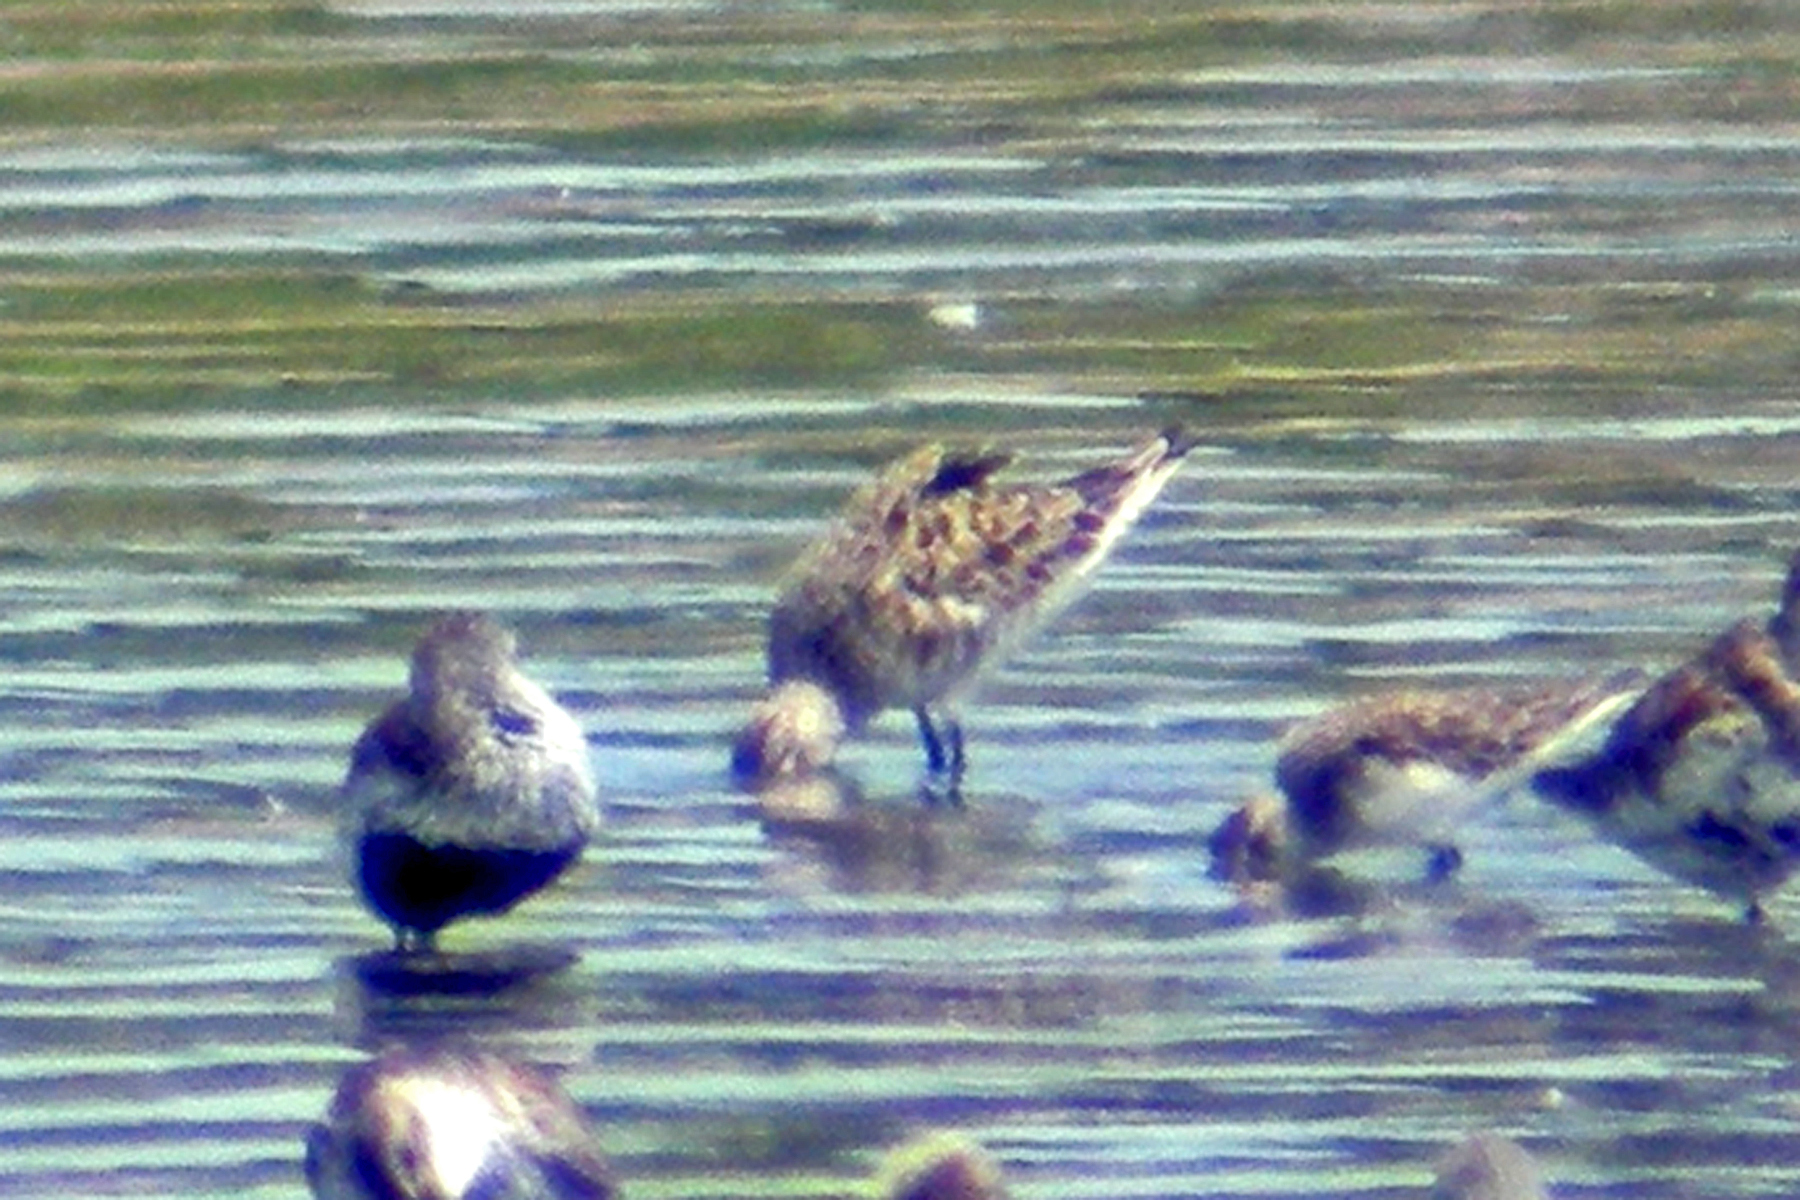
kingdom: Animalia
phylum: Chordata
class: Aves
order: Charadriiformes
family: Scolopacidae
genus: Calidris
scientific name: Calidris ferruginea
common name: Curlew sandpiper
